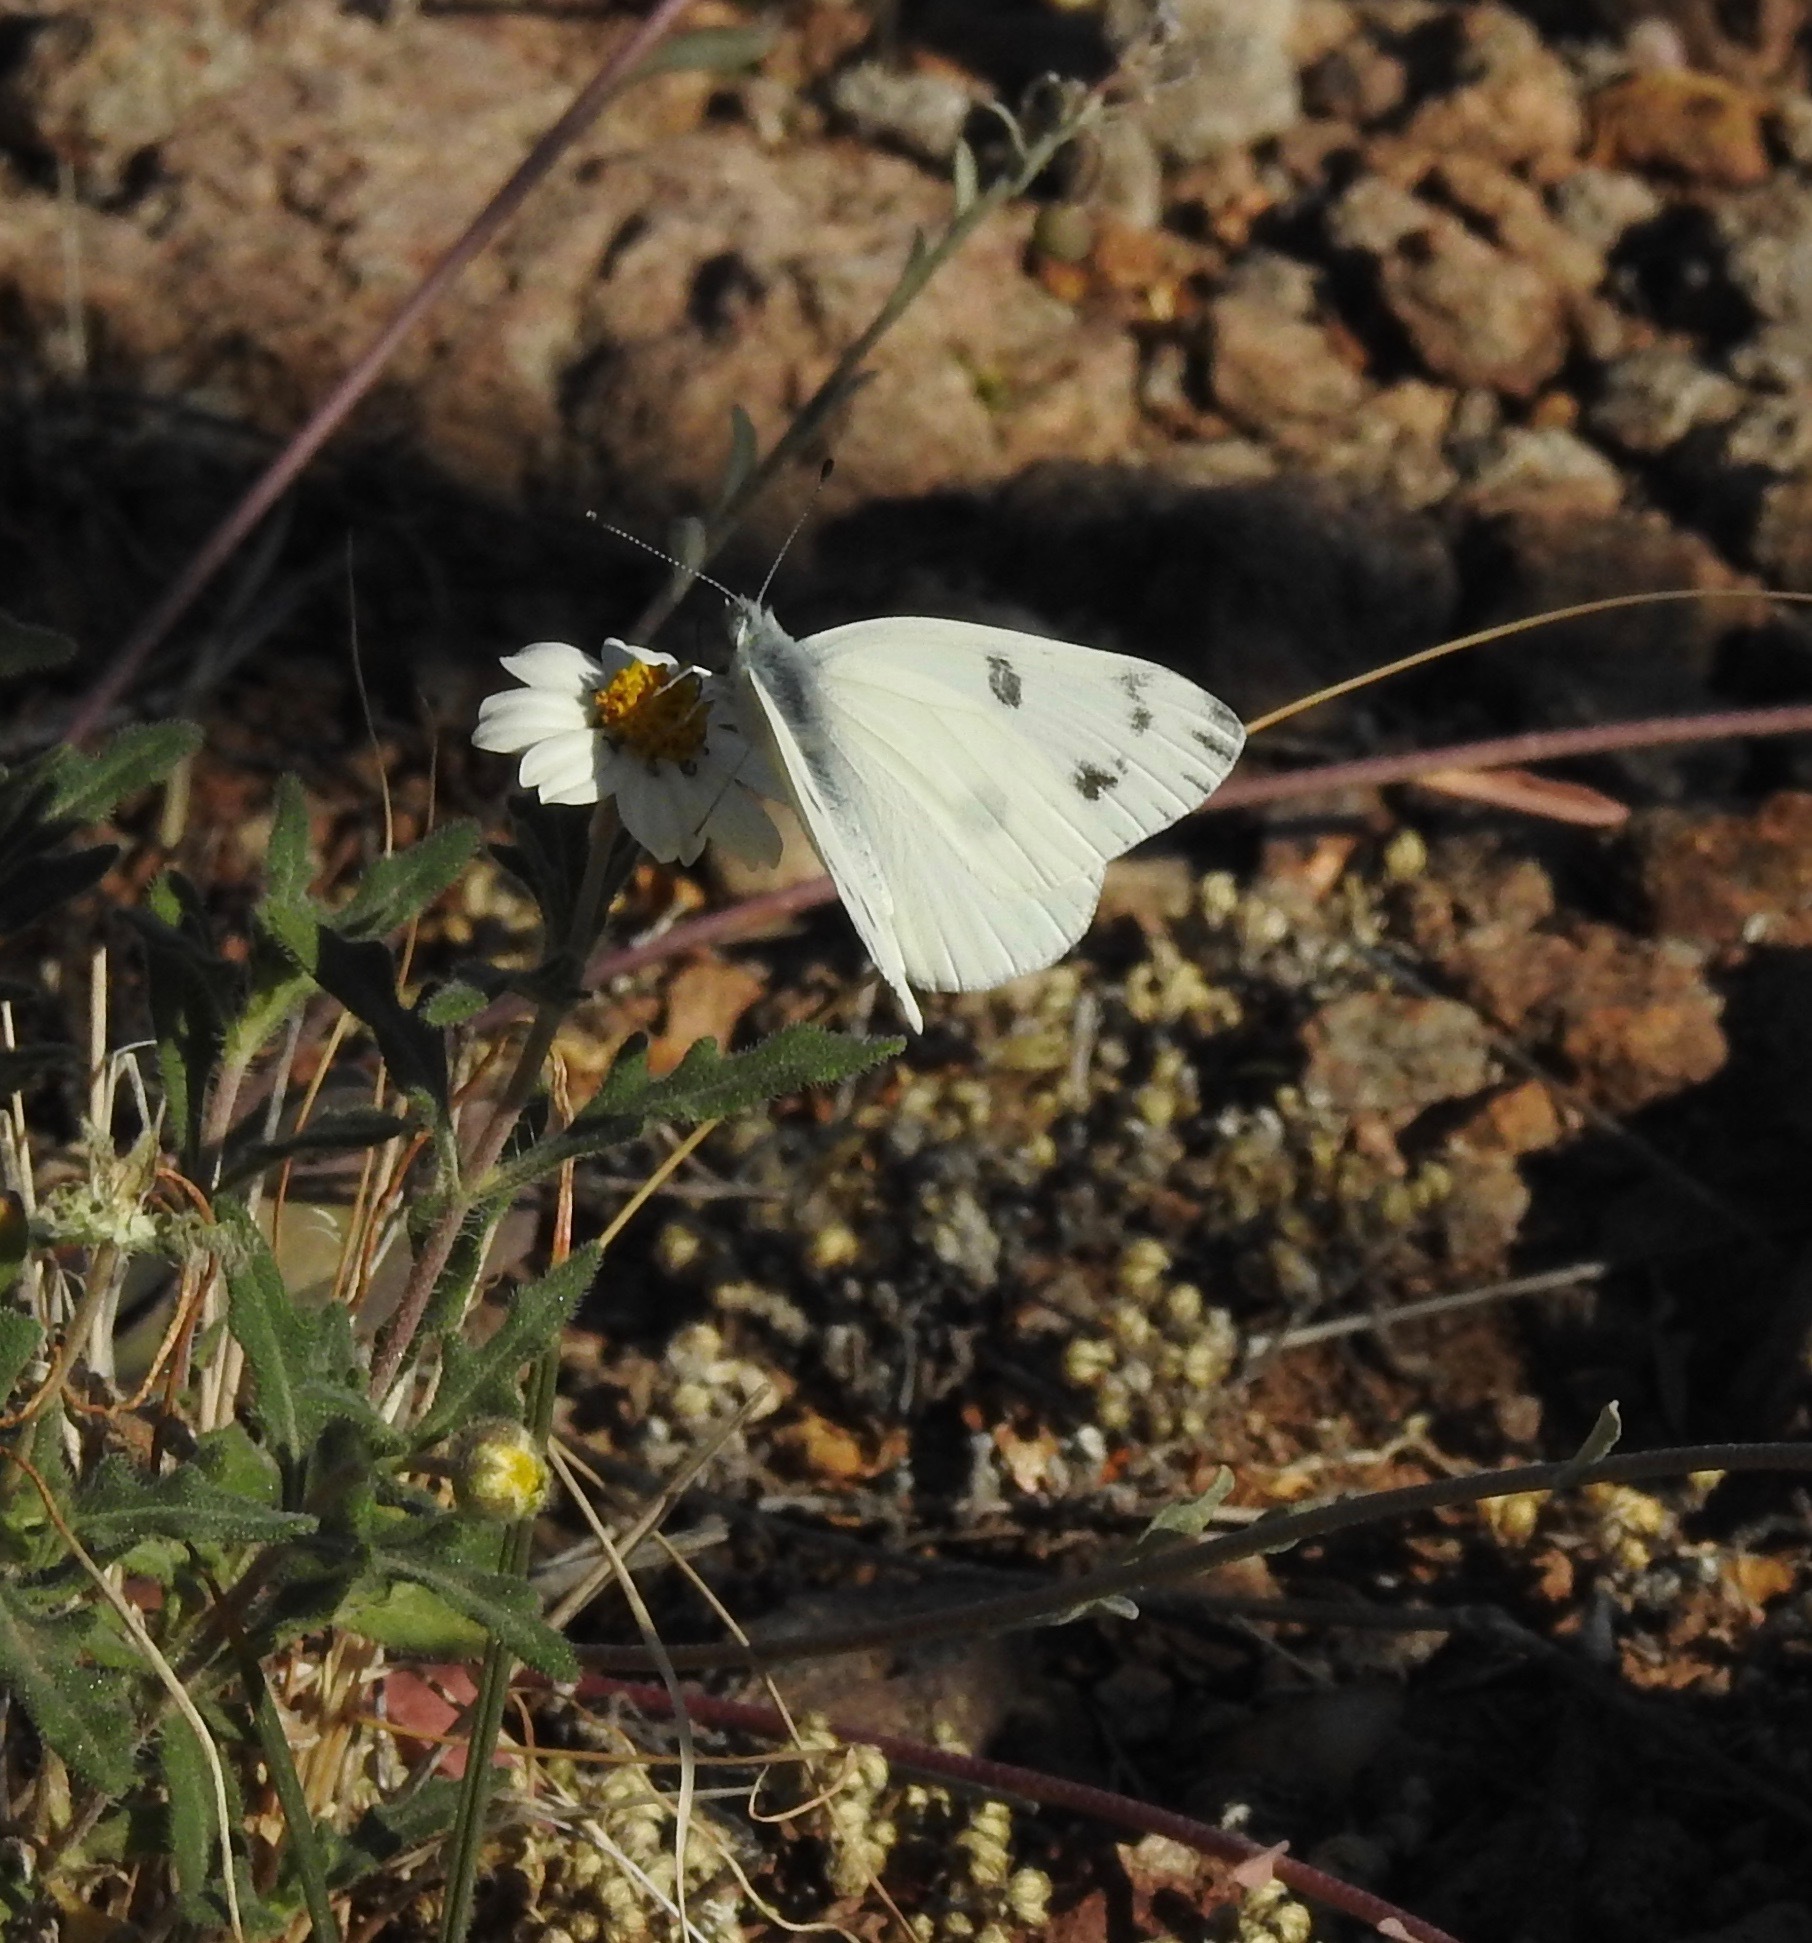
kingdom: Animalia
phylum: Arthropoda
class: Insecta
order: Lepidoptera
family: Pieridae
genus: Pontia
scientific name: Pontia protodice
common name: Checkered white
